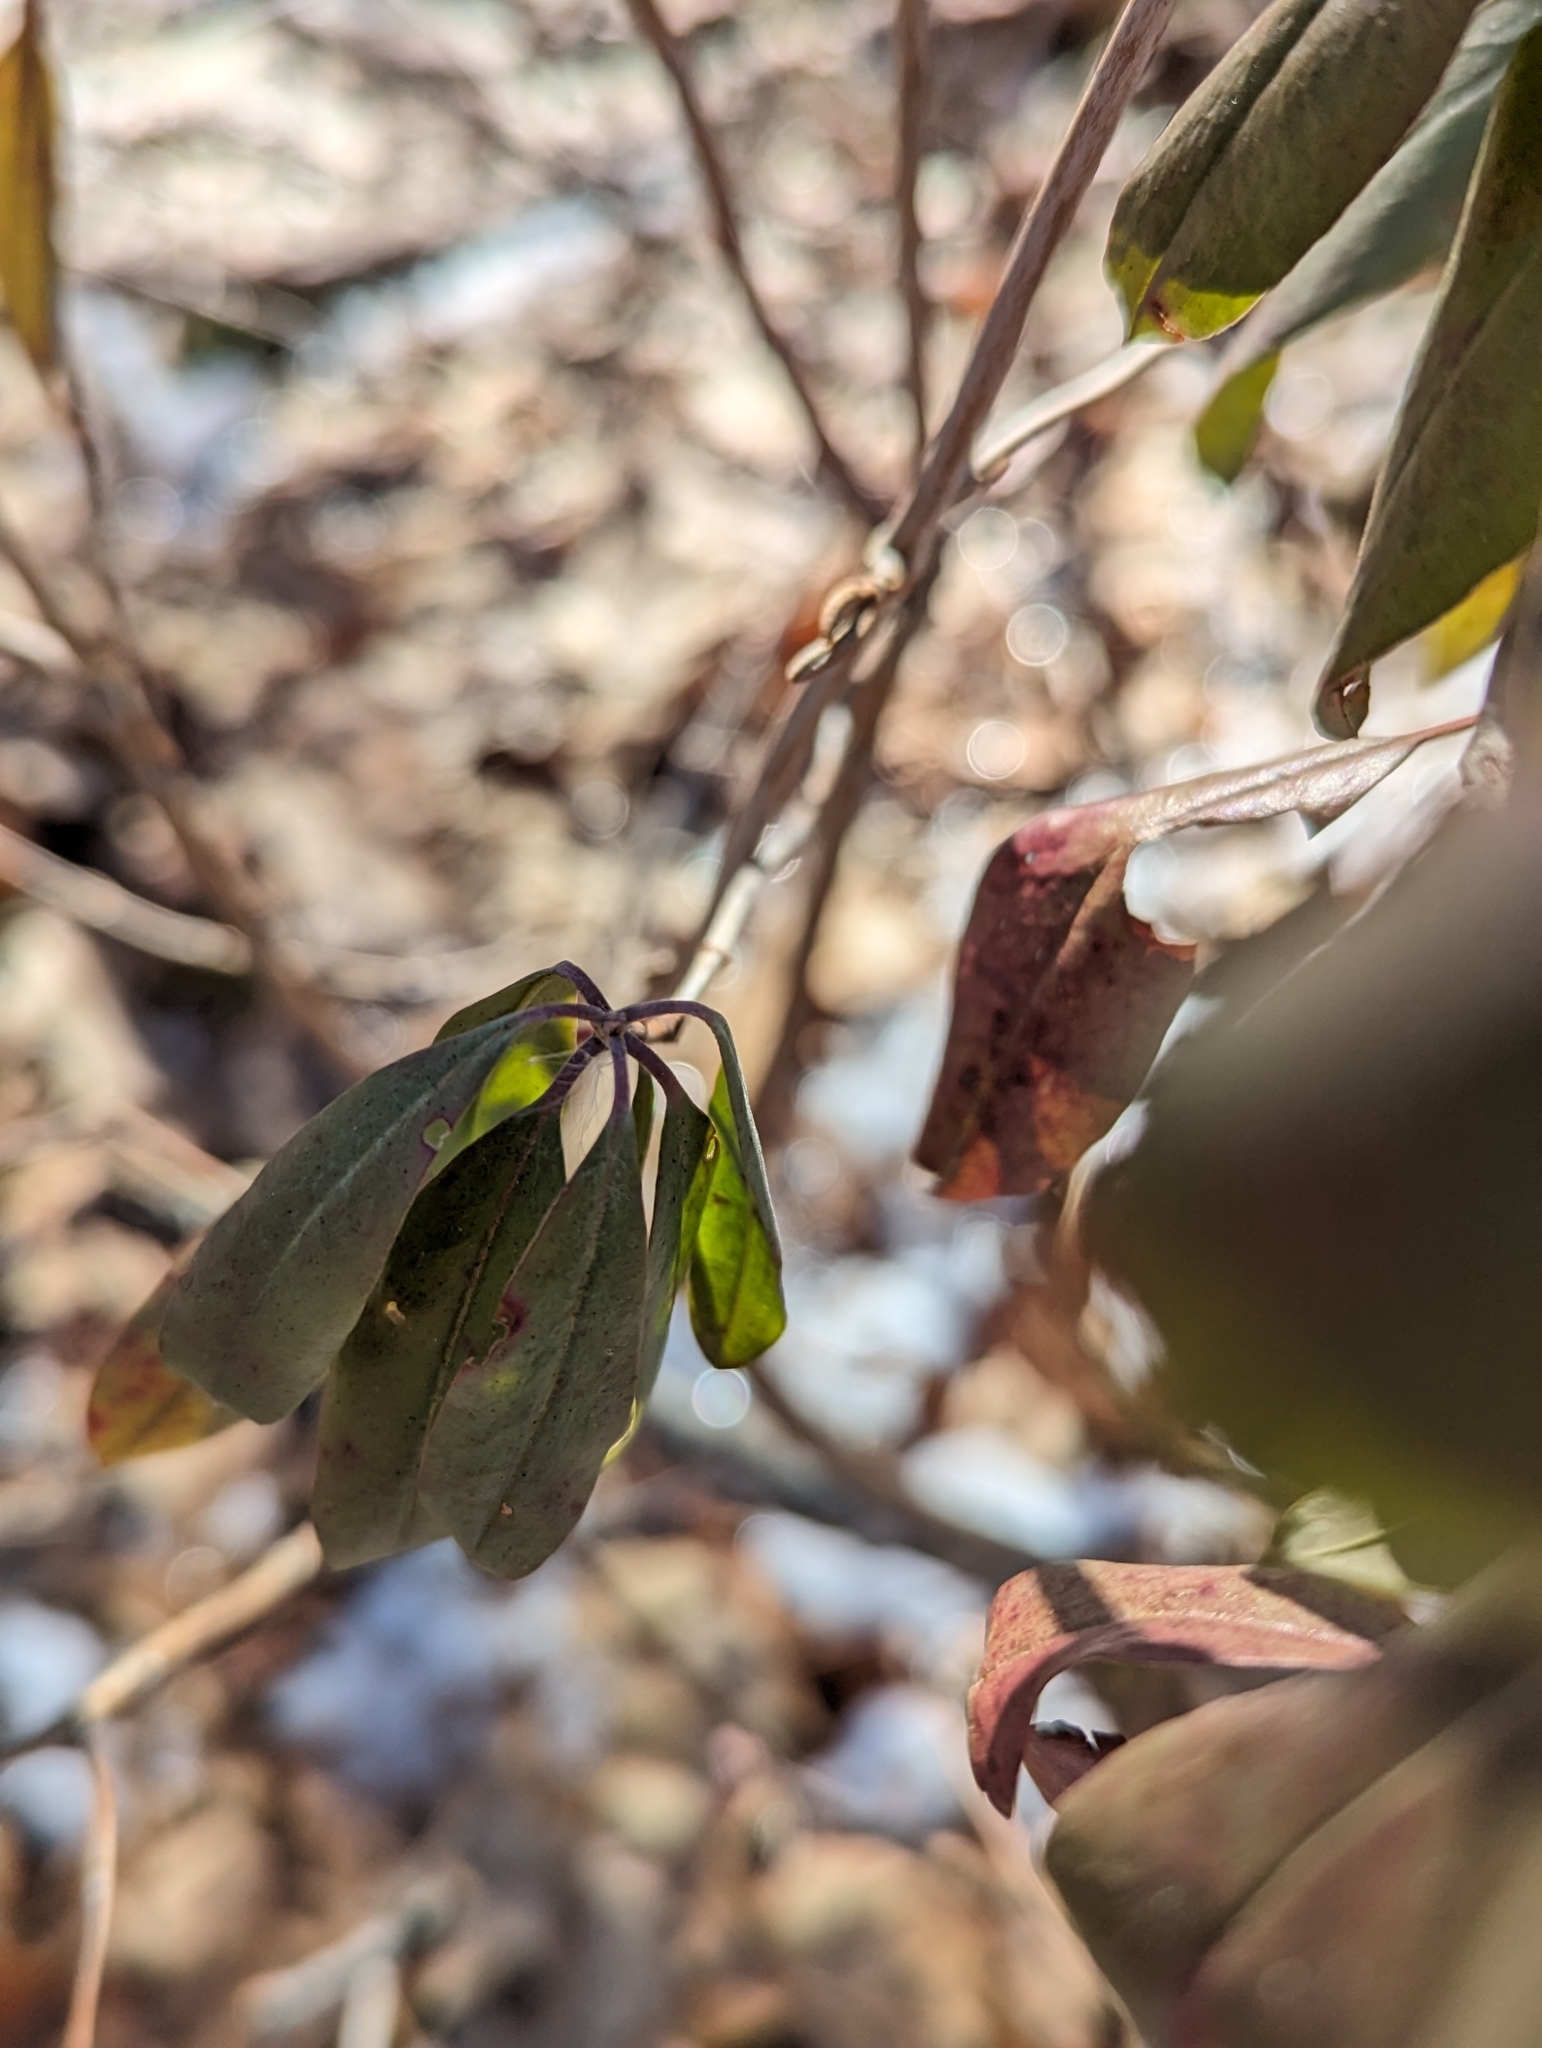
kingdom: Plantae
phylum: Tracheophyta
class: Magnoliopsida
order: Ericales
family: Ericaceae
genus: Kalmia
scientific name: Kalmia angustifolia
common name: Sheep-laurel
